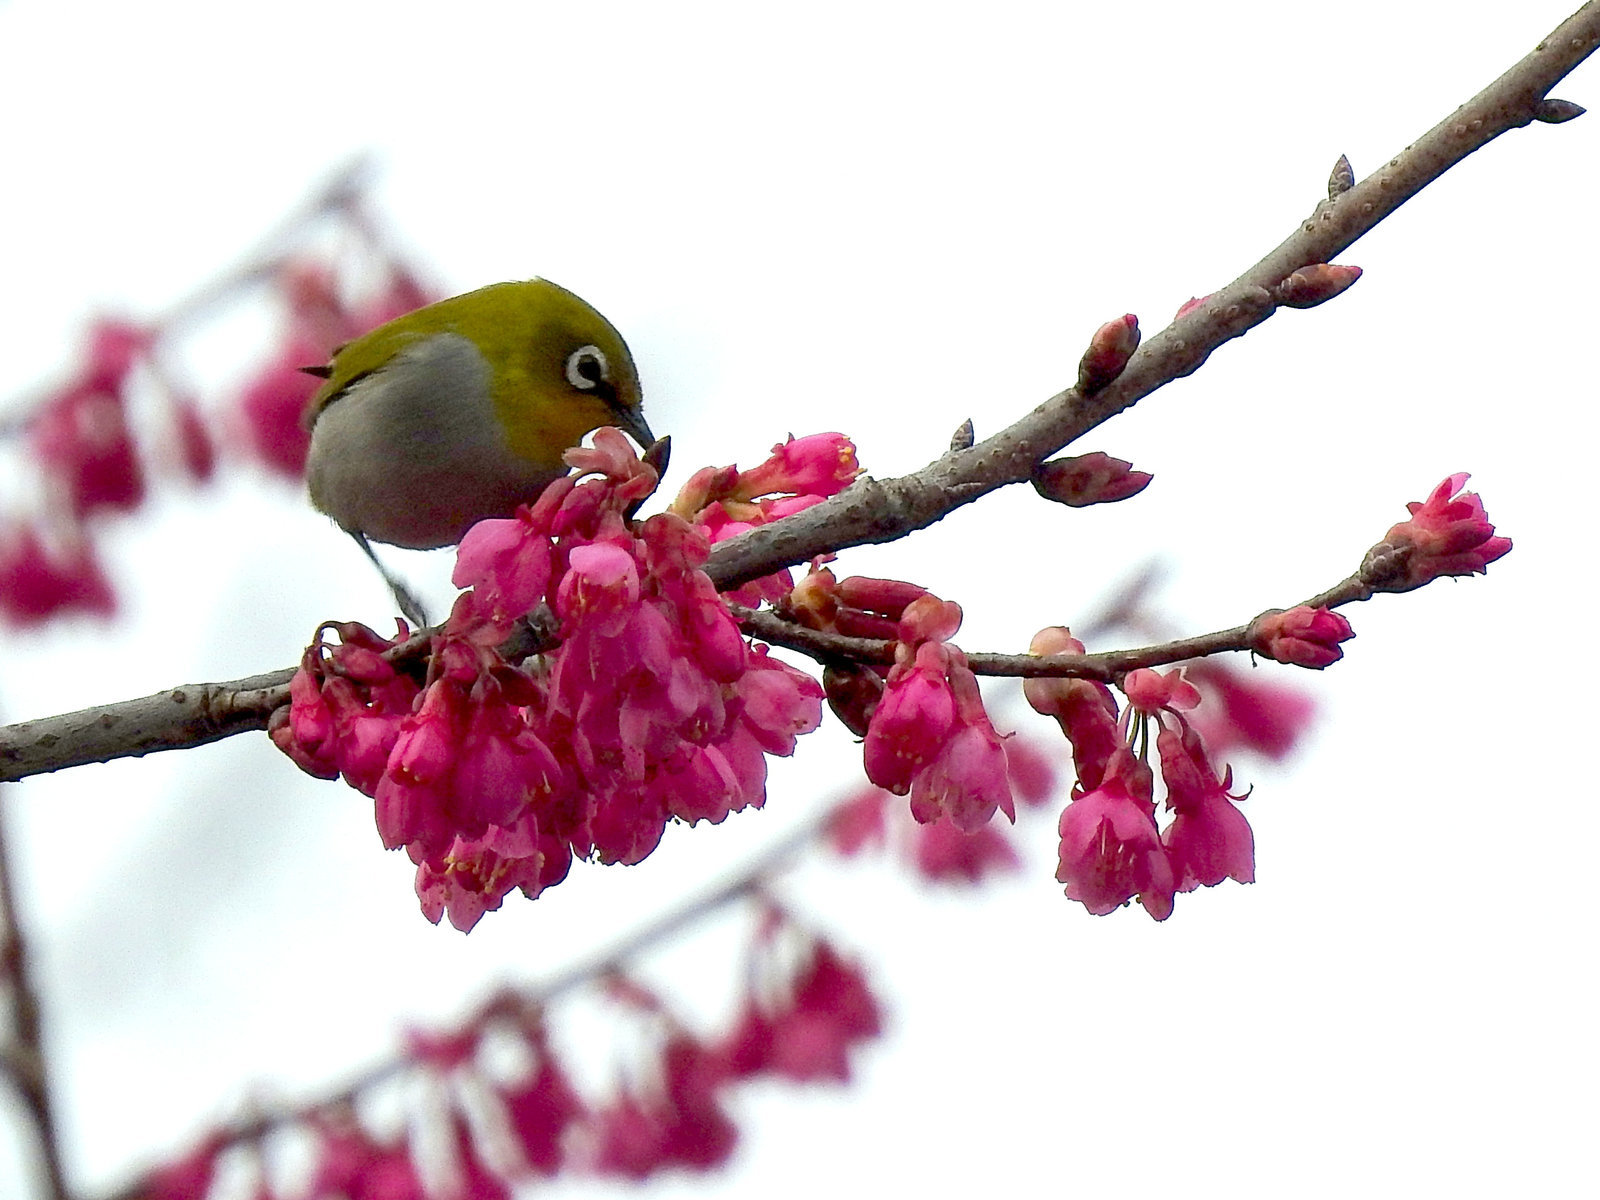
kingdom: Animalia
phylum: Chordata
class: Aves
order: Passeriformes
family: Zosteropidae
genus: Zosterops
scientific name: Zosterops palpebrosus
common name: Oriental white-eye
